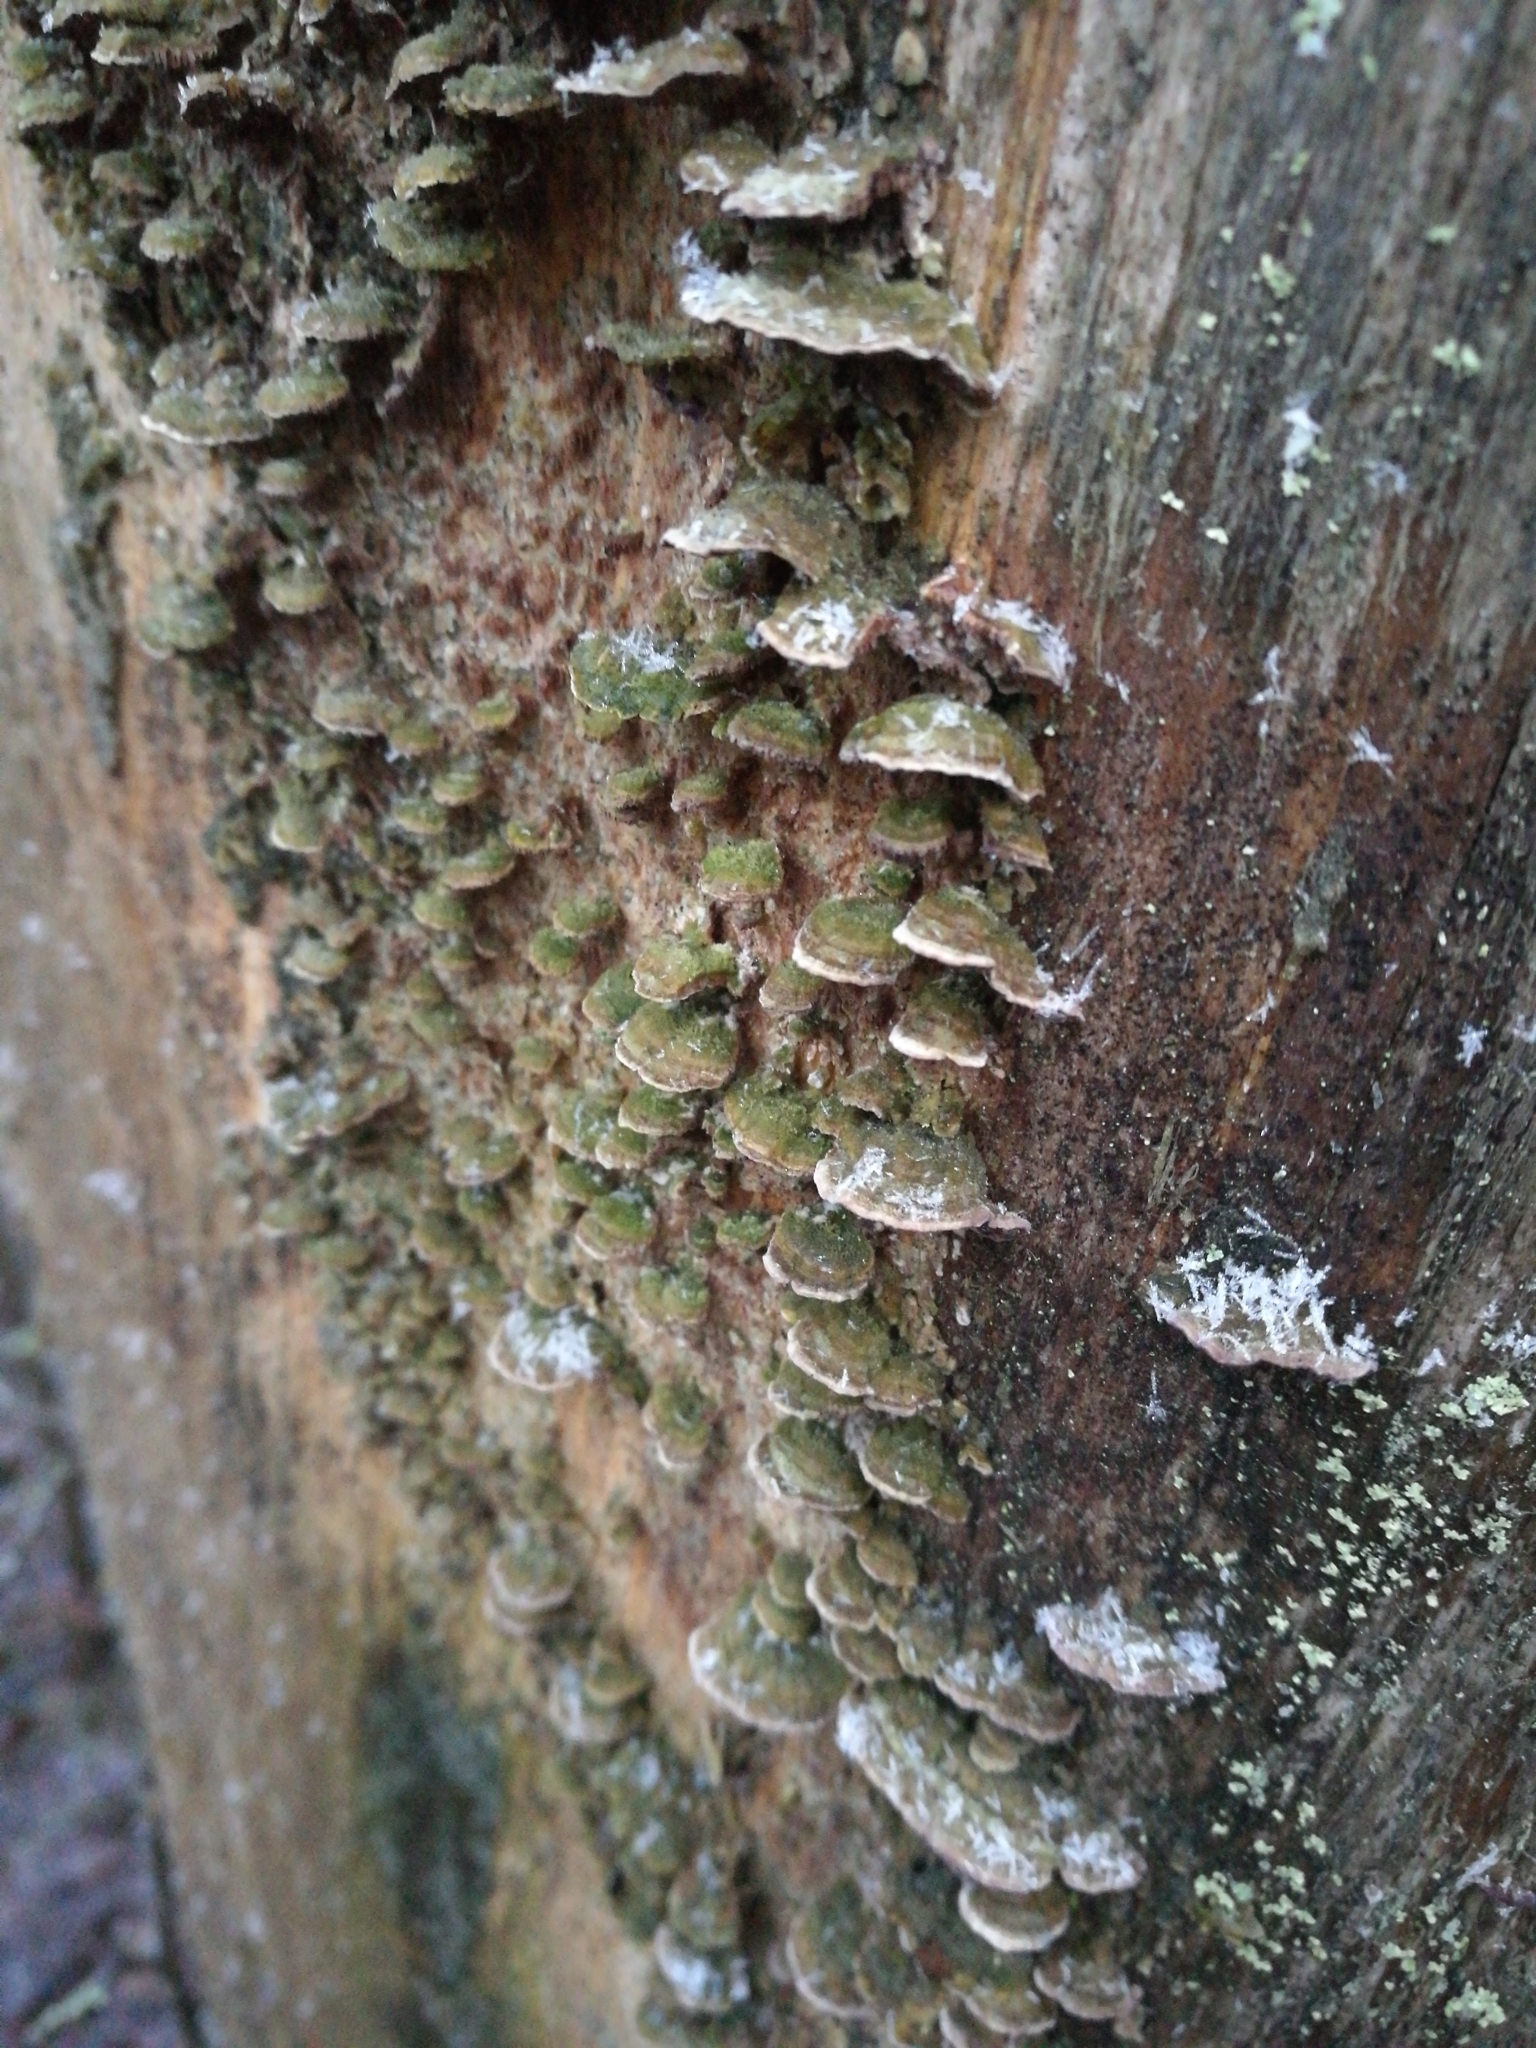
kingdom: Fungi
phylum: Basidiomycota
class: Agaricomycetes
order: Hymenochaetales
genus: Trichaptum
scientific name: Trichaptum abietinum
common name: Purplepore bracket
